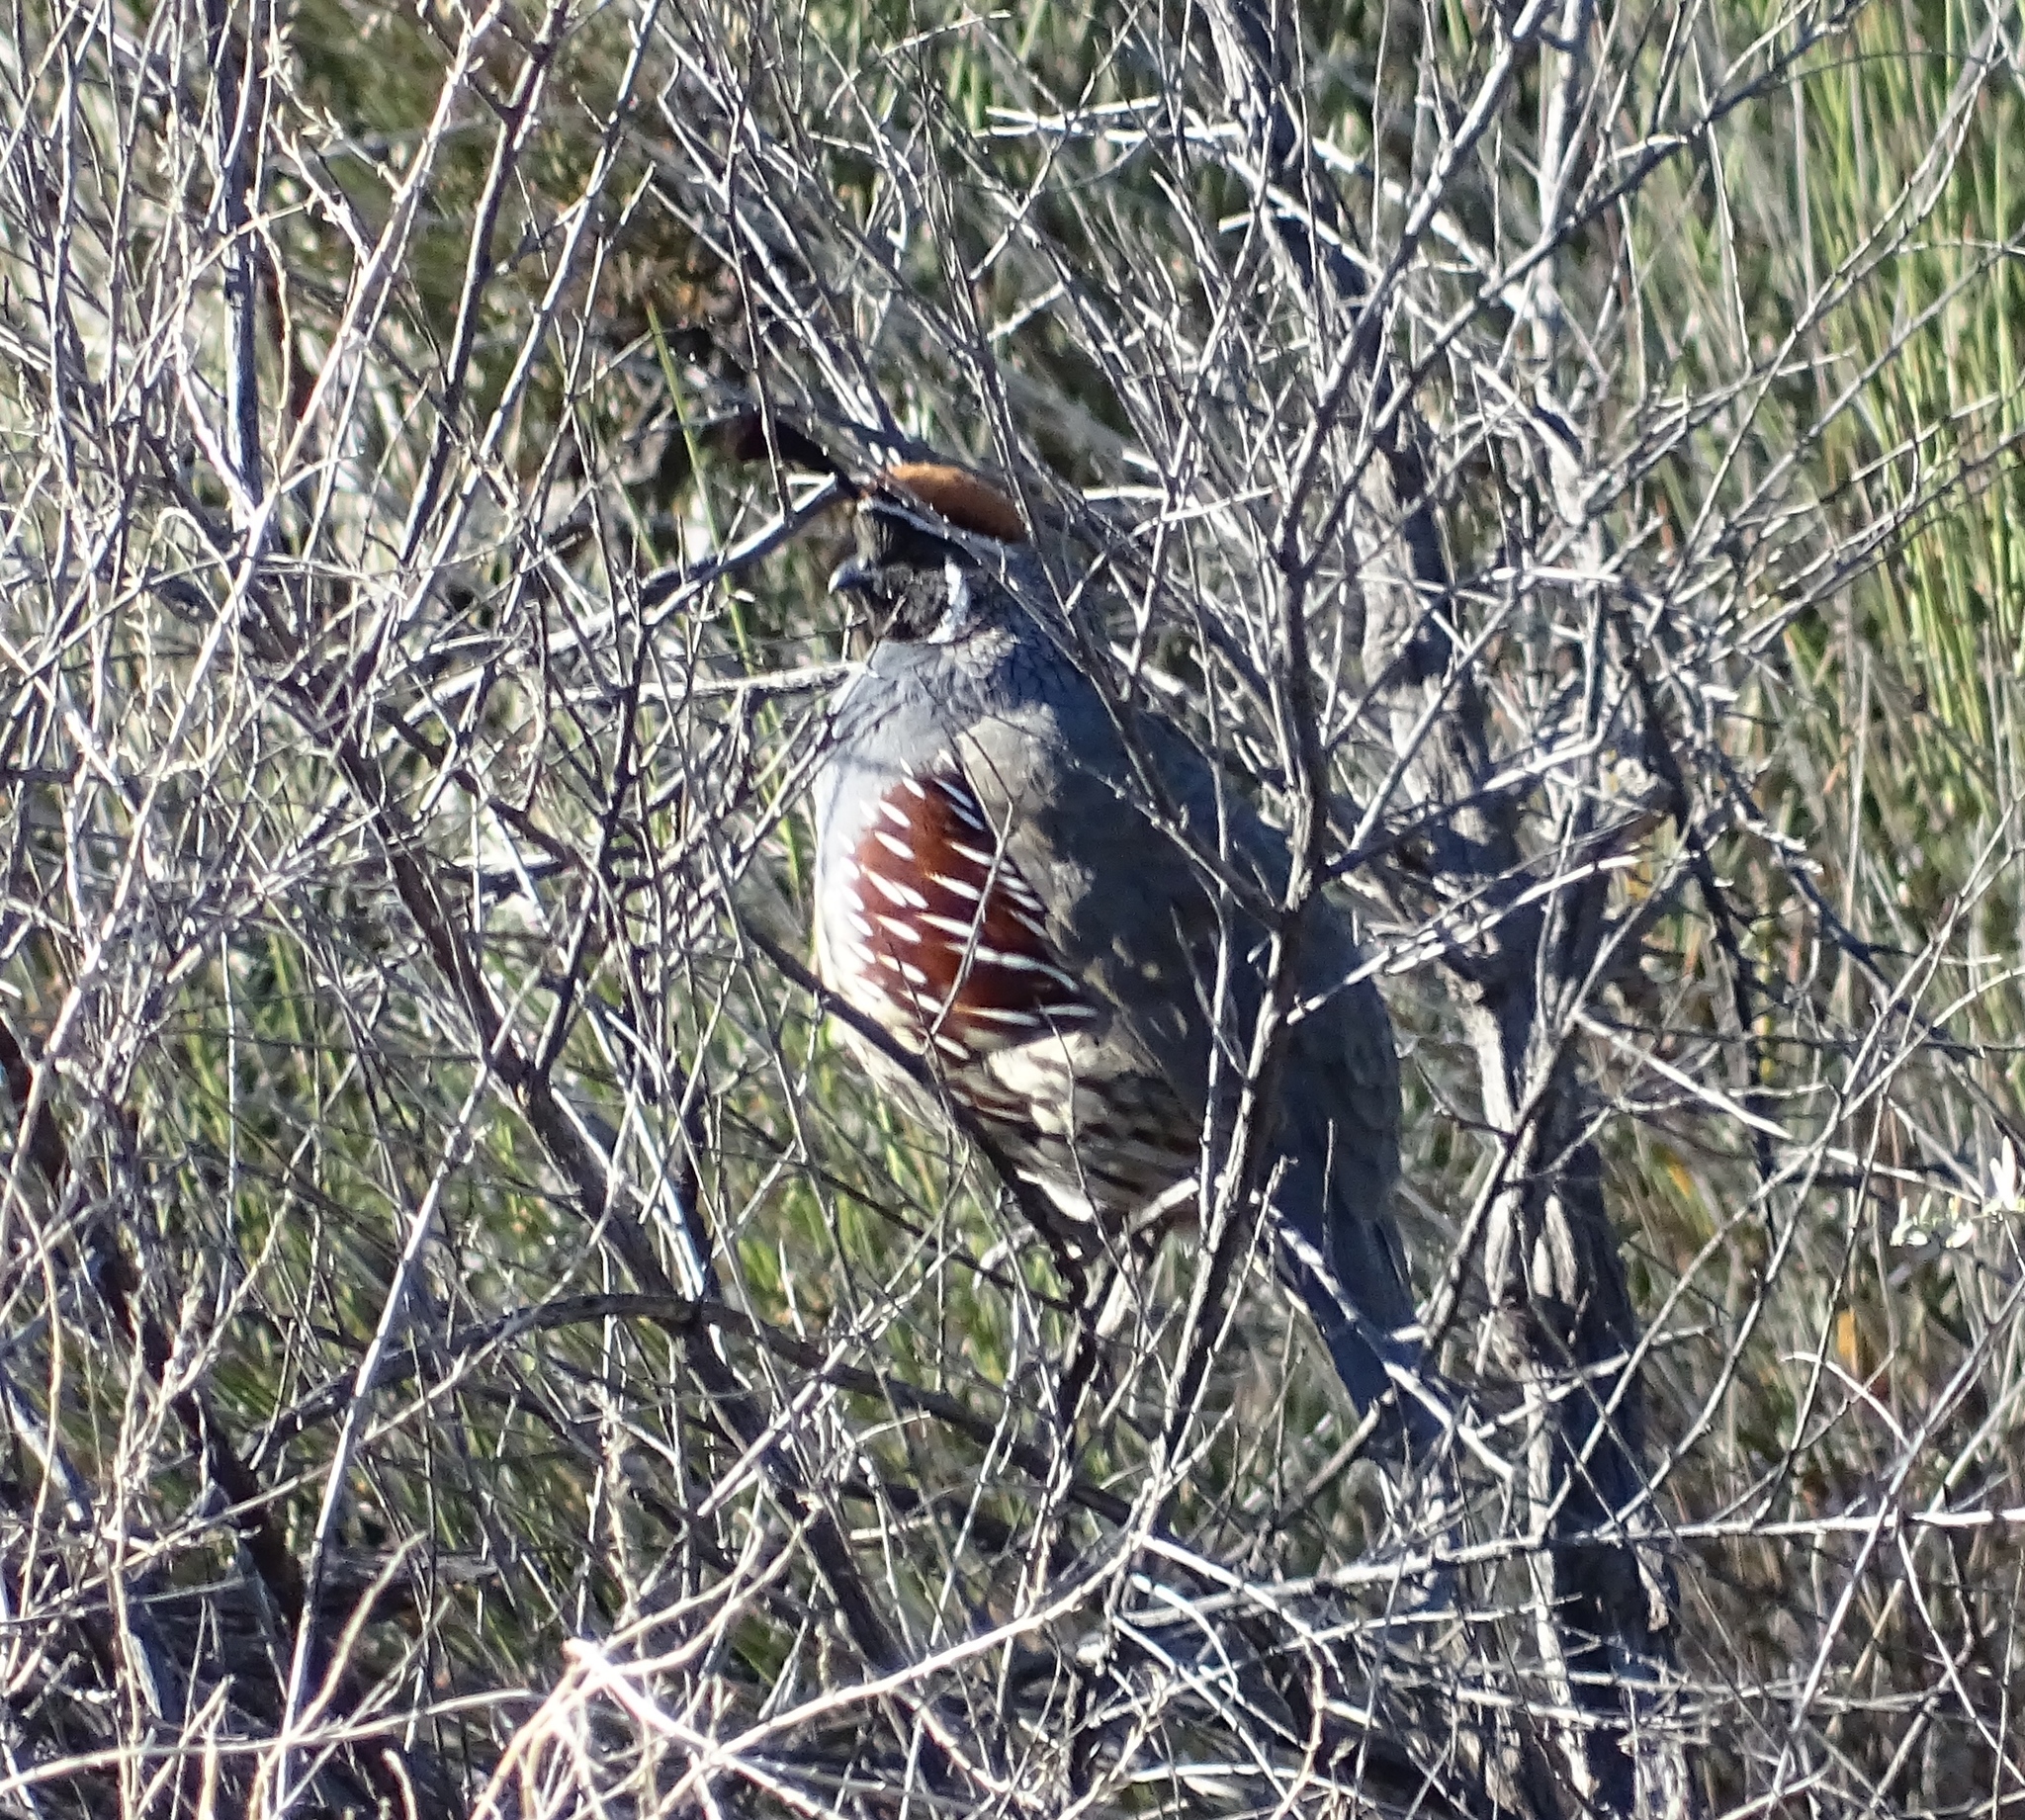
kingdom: Animalia
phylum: Chordata
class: Aves
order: Galliformes
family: Odontophoridae
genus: Callipepla
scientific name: Callipepla gambelii
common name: Gambel's quail
